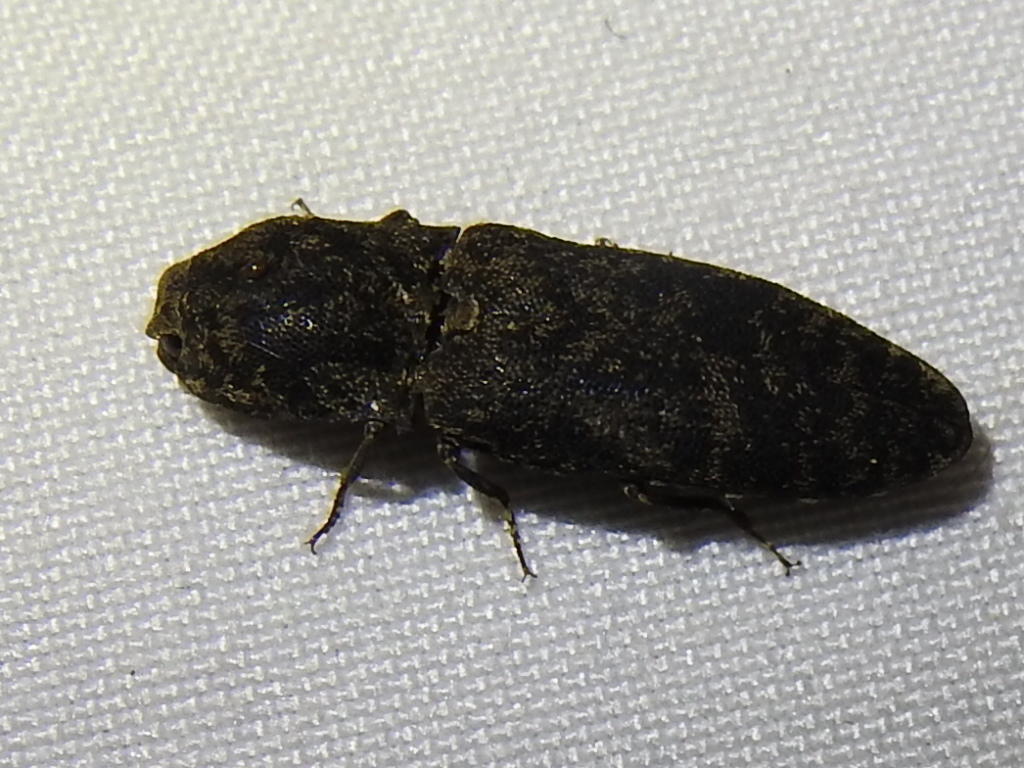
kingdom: Animalia
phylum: Arthropoda
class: Insecta
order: Coleoptera
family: Elateridae
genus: Lacon
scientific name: Lacon marmoratus
